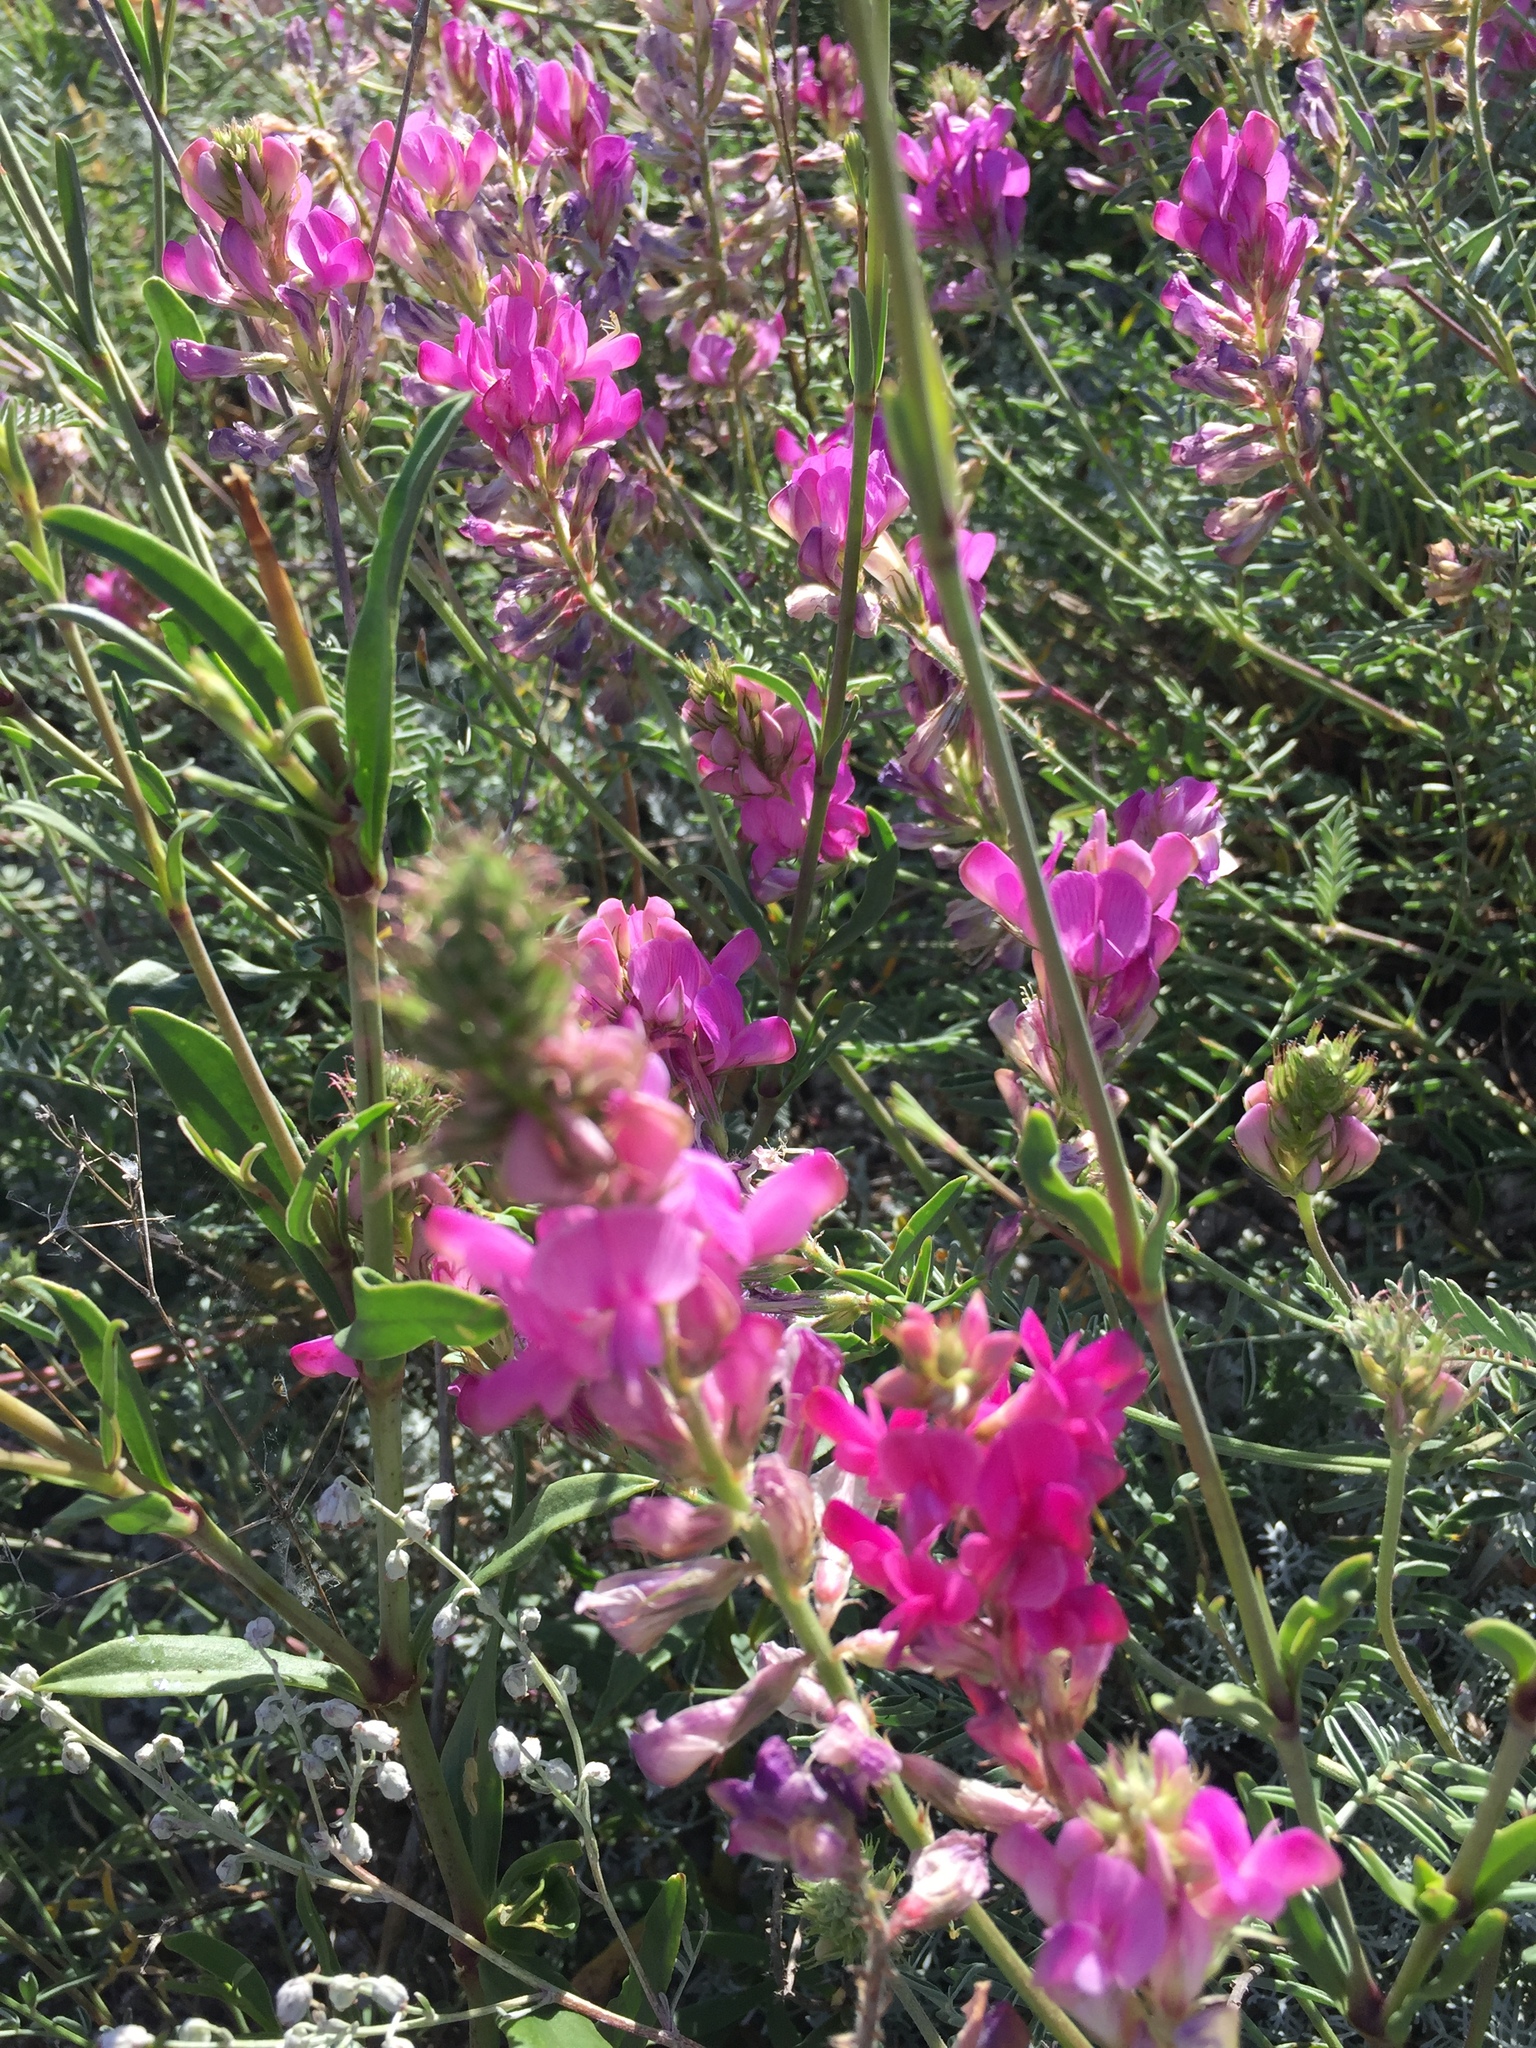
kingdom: Plantae
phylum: Tracheophyta
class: Magnoliopsida
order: Fabales
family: Fabaceae
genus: Hedysarum
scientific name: Hedysarum ucrainicum
